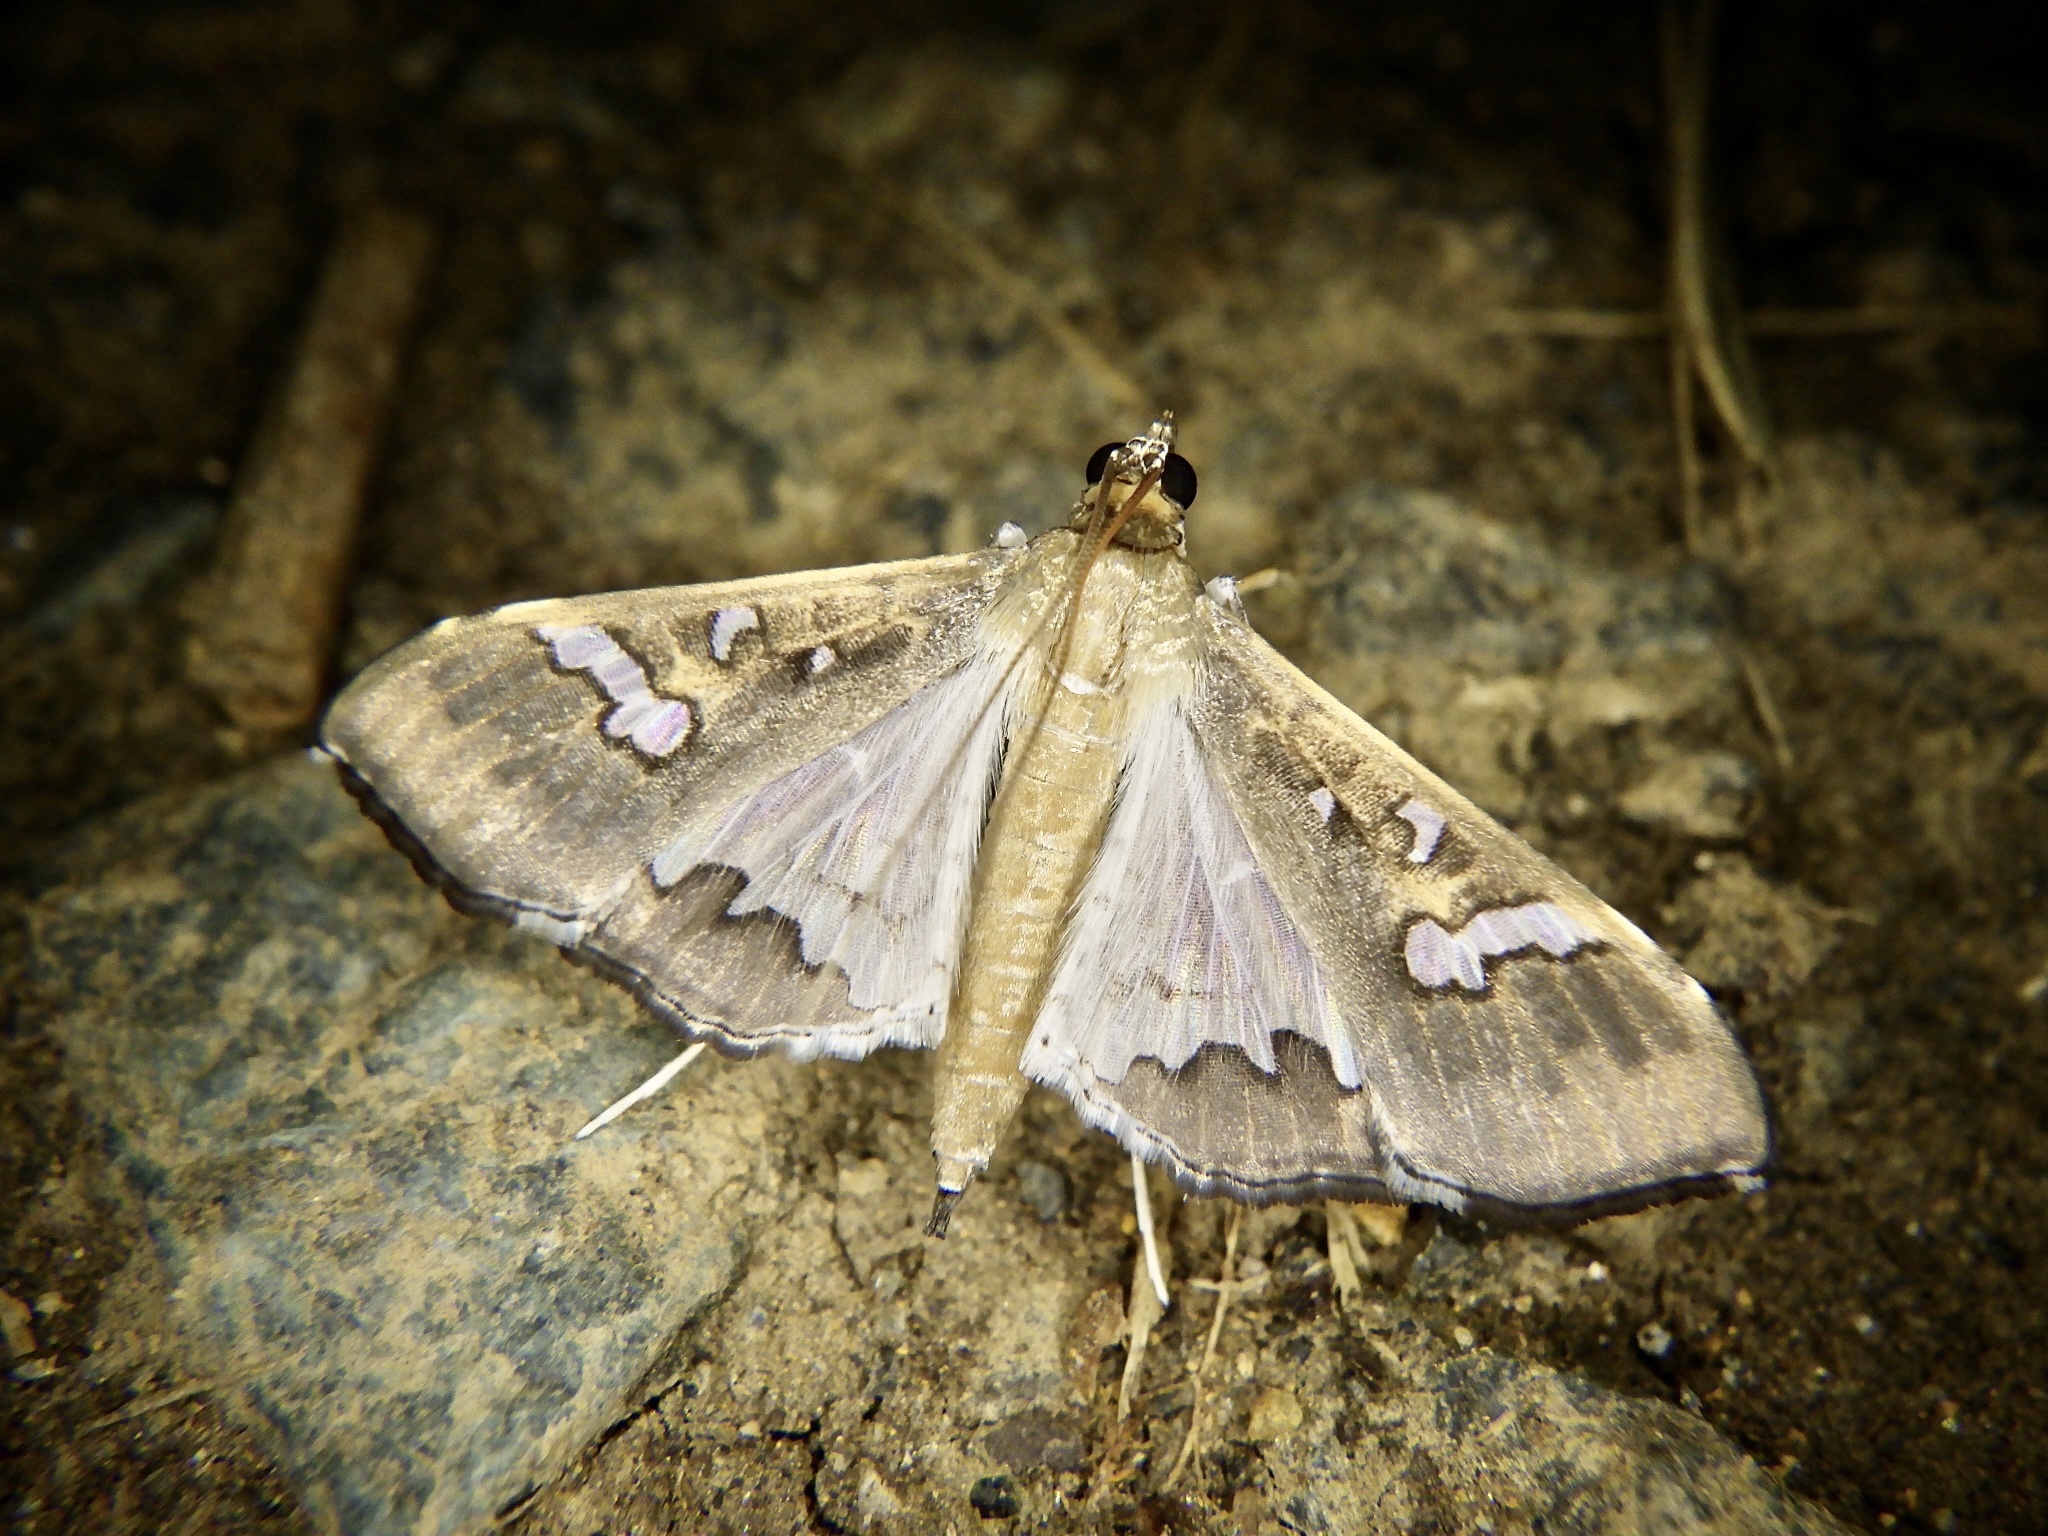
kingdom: Animalia
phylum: Arthropoda
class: Insecta
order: Lepidoptera
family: Crambidae
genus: Maruca
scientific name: Maruca vitrata
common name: Maruca pod borer
